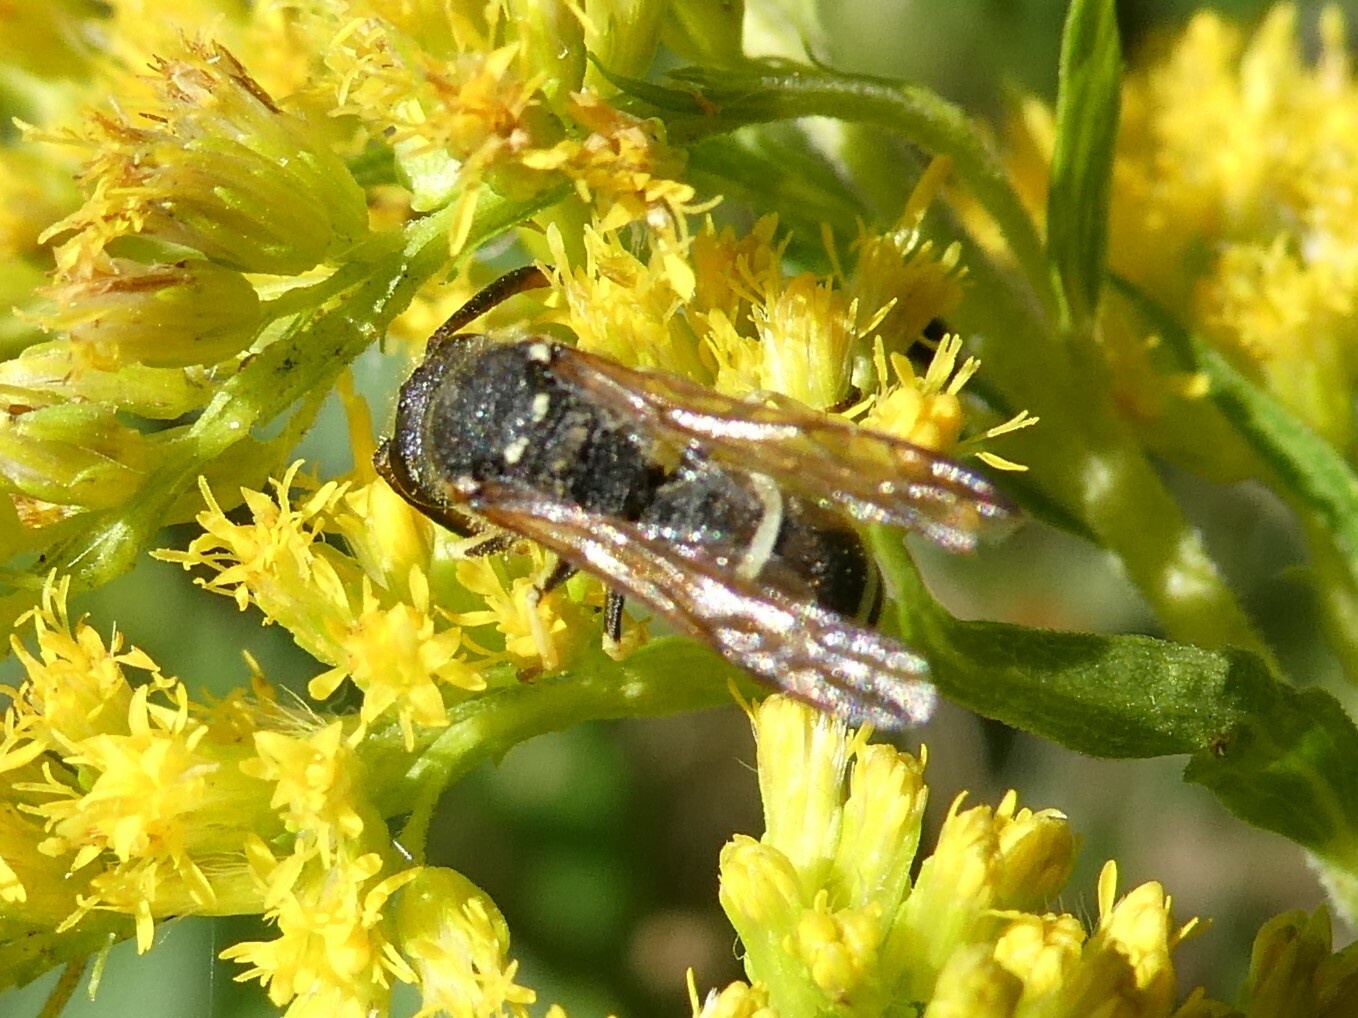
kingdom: Animalia
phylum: Arthropoda
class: Insecta
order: Hymenoptera
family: Vespidae
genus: Ancistrocerus
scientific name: Ancistrocerus
